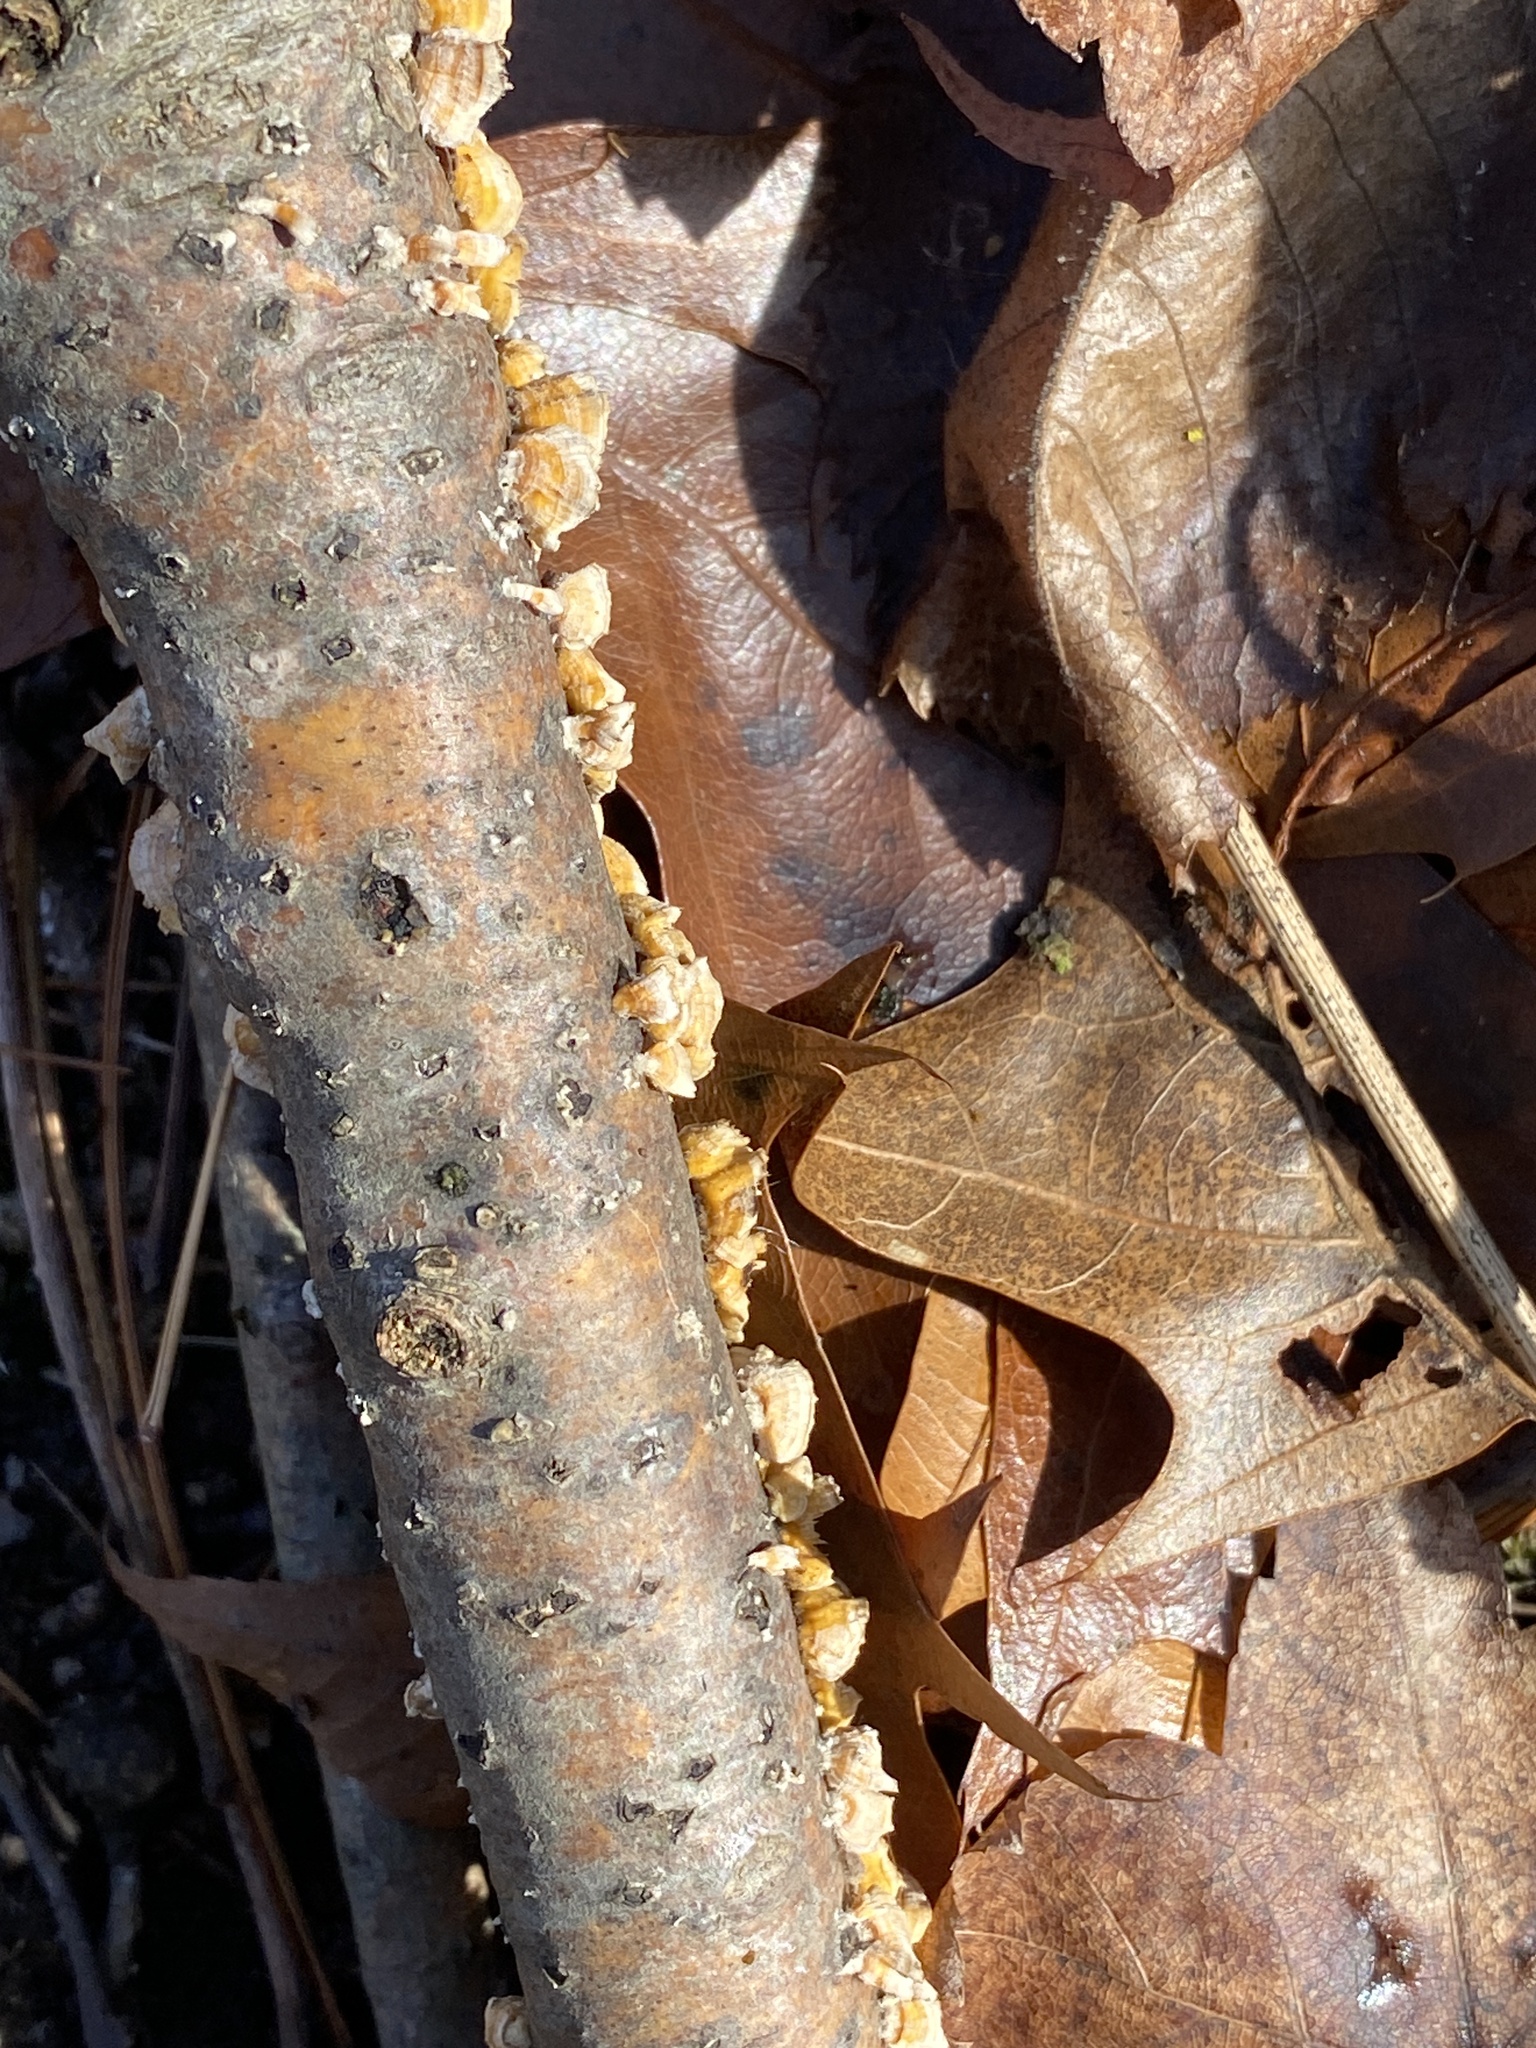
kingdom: Fungi
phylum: Basidiomycota
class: Agaricomycetes
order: Russulales
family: Stereaceae
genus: Stereum
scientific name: Stereum complicatum
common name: Crowded parchment
